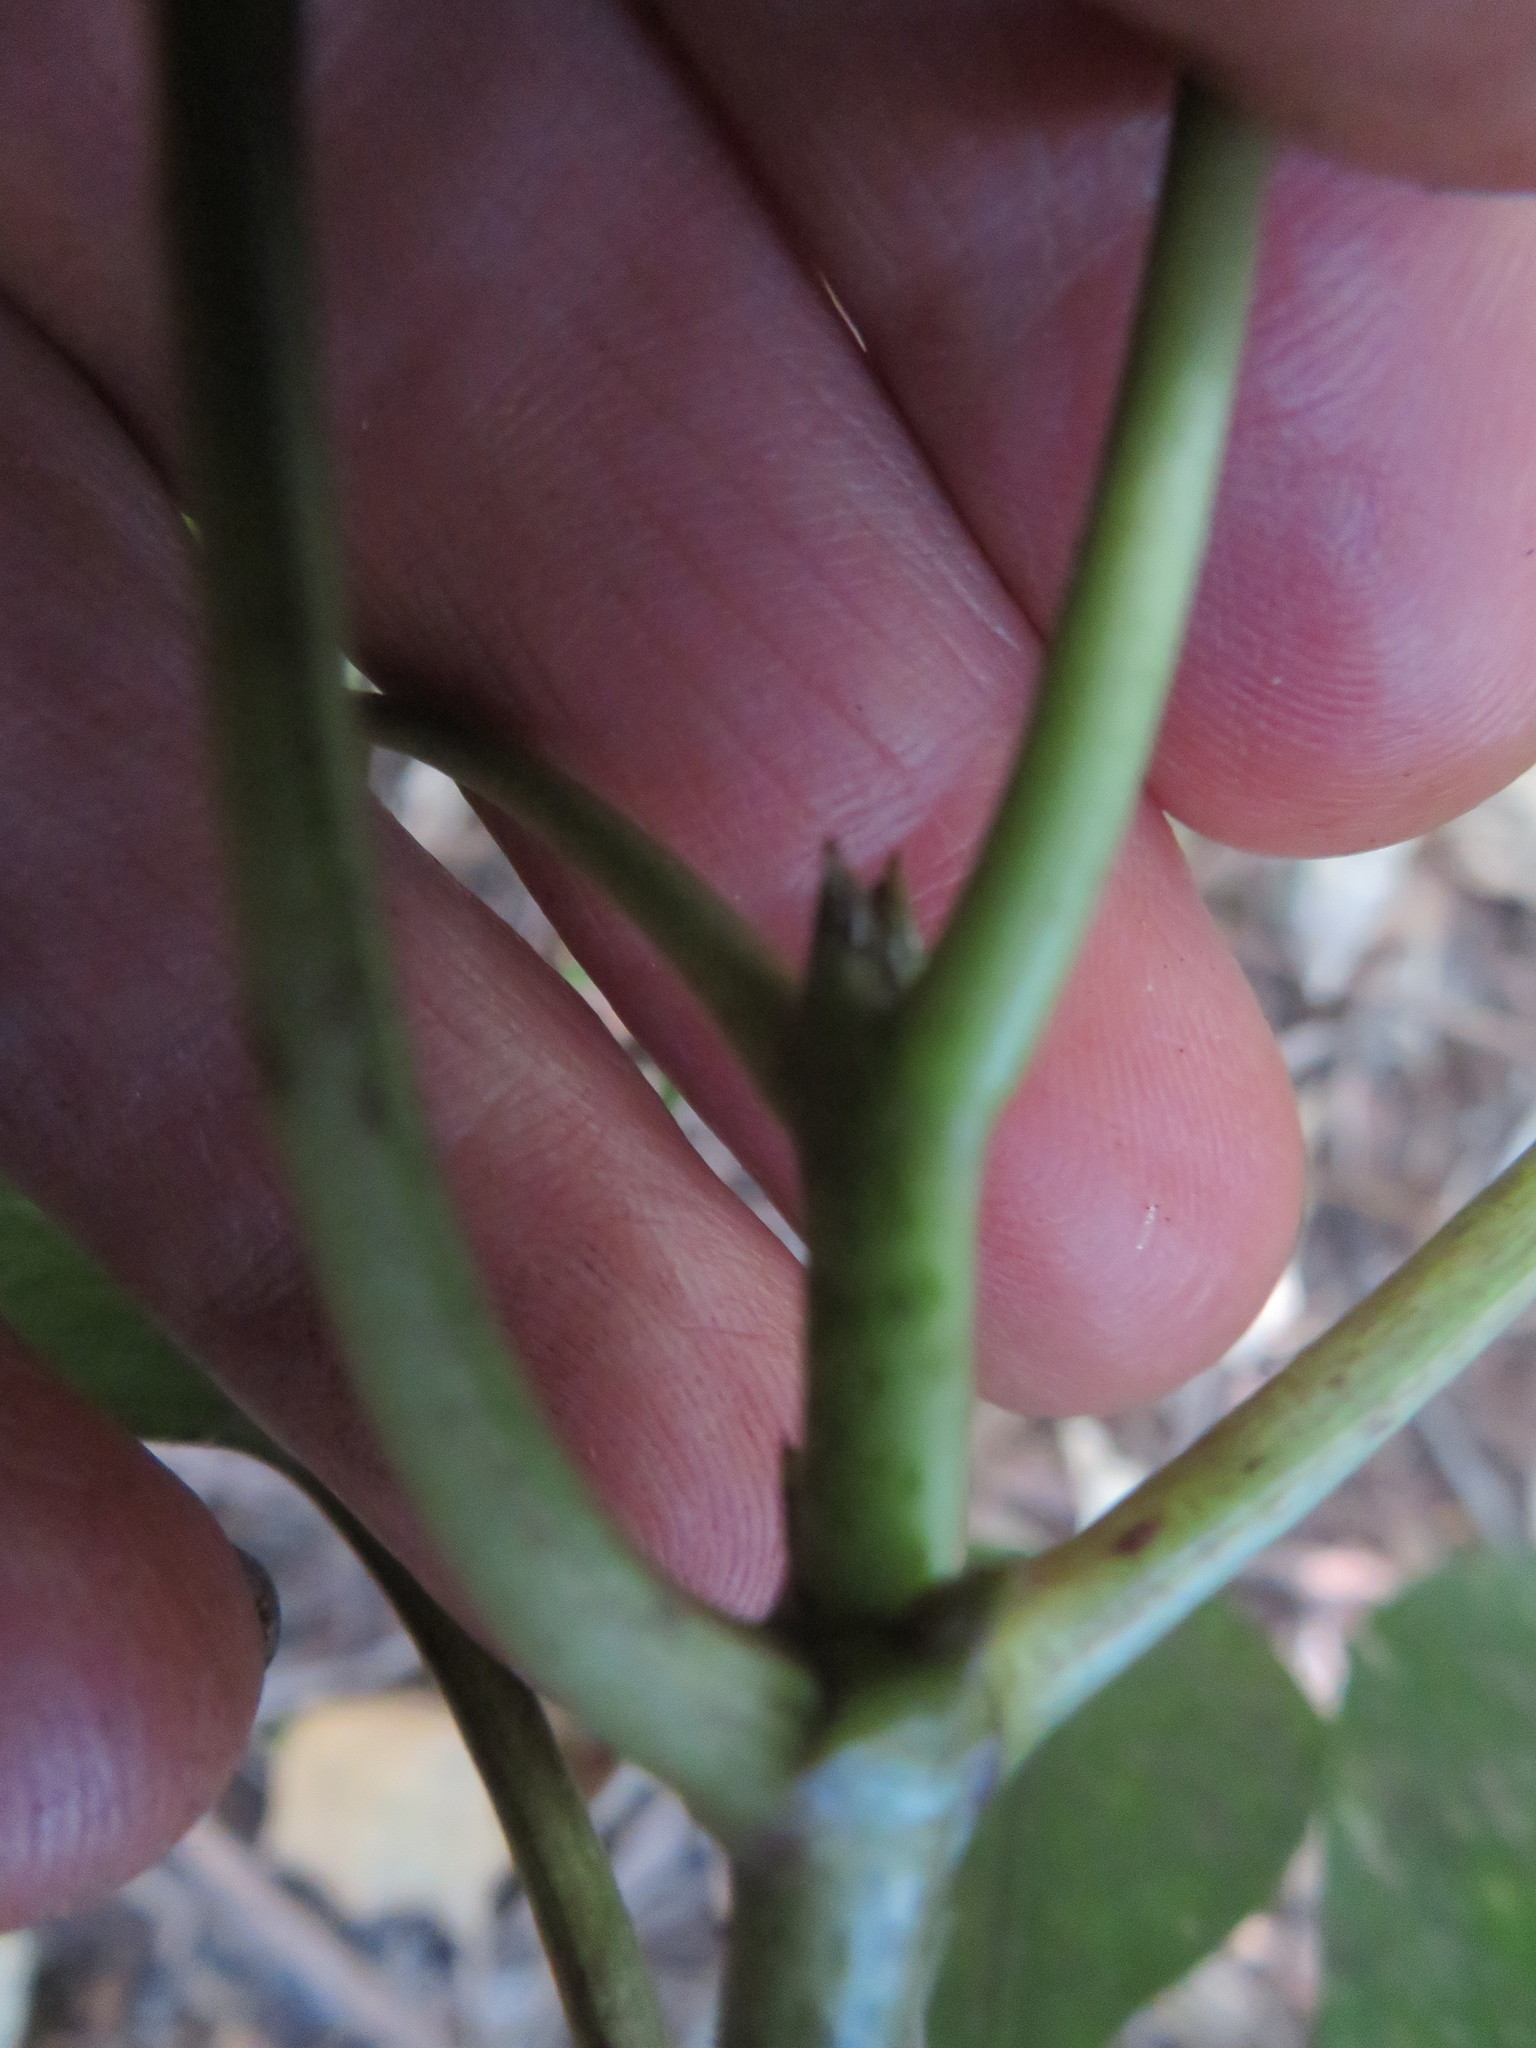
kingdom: Plantae
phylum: Tracheophyta
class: Magnoliopsida
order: Gentianales
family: Rubiaceae
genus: Coprosma
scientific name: Coprosma autumnalis
